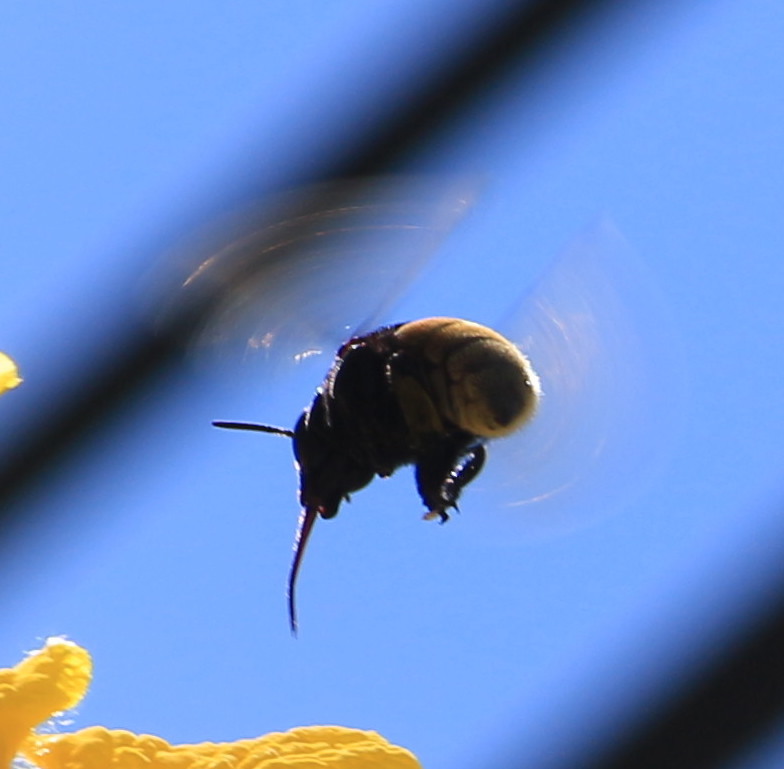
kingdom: Animalia
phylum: Arthropoda
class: Insecta
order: Hymenoptera
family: Apidae
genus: Eulaema
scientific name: Eulaema polychroma
